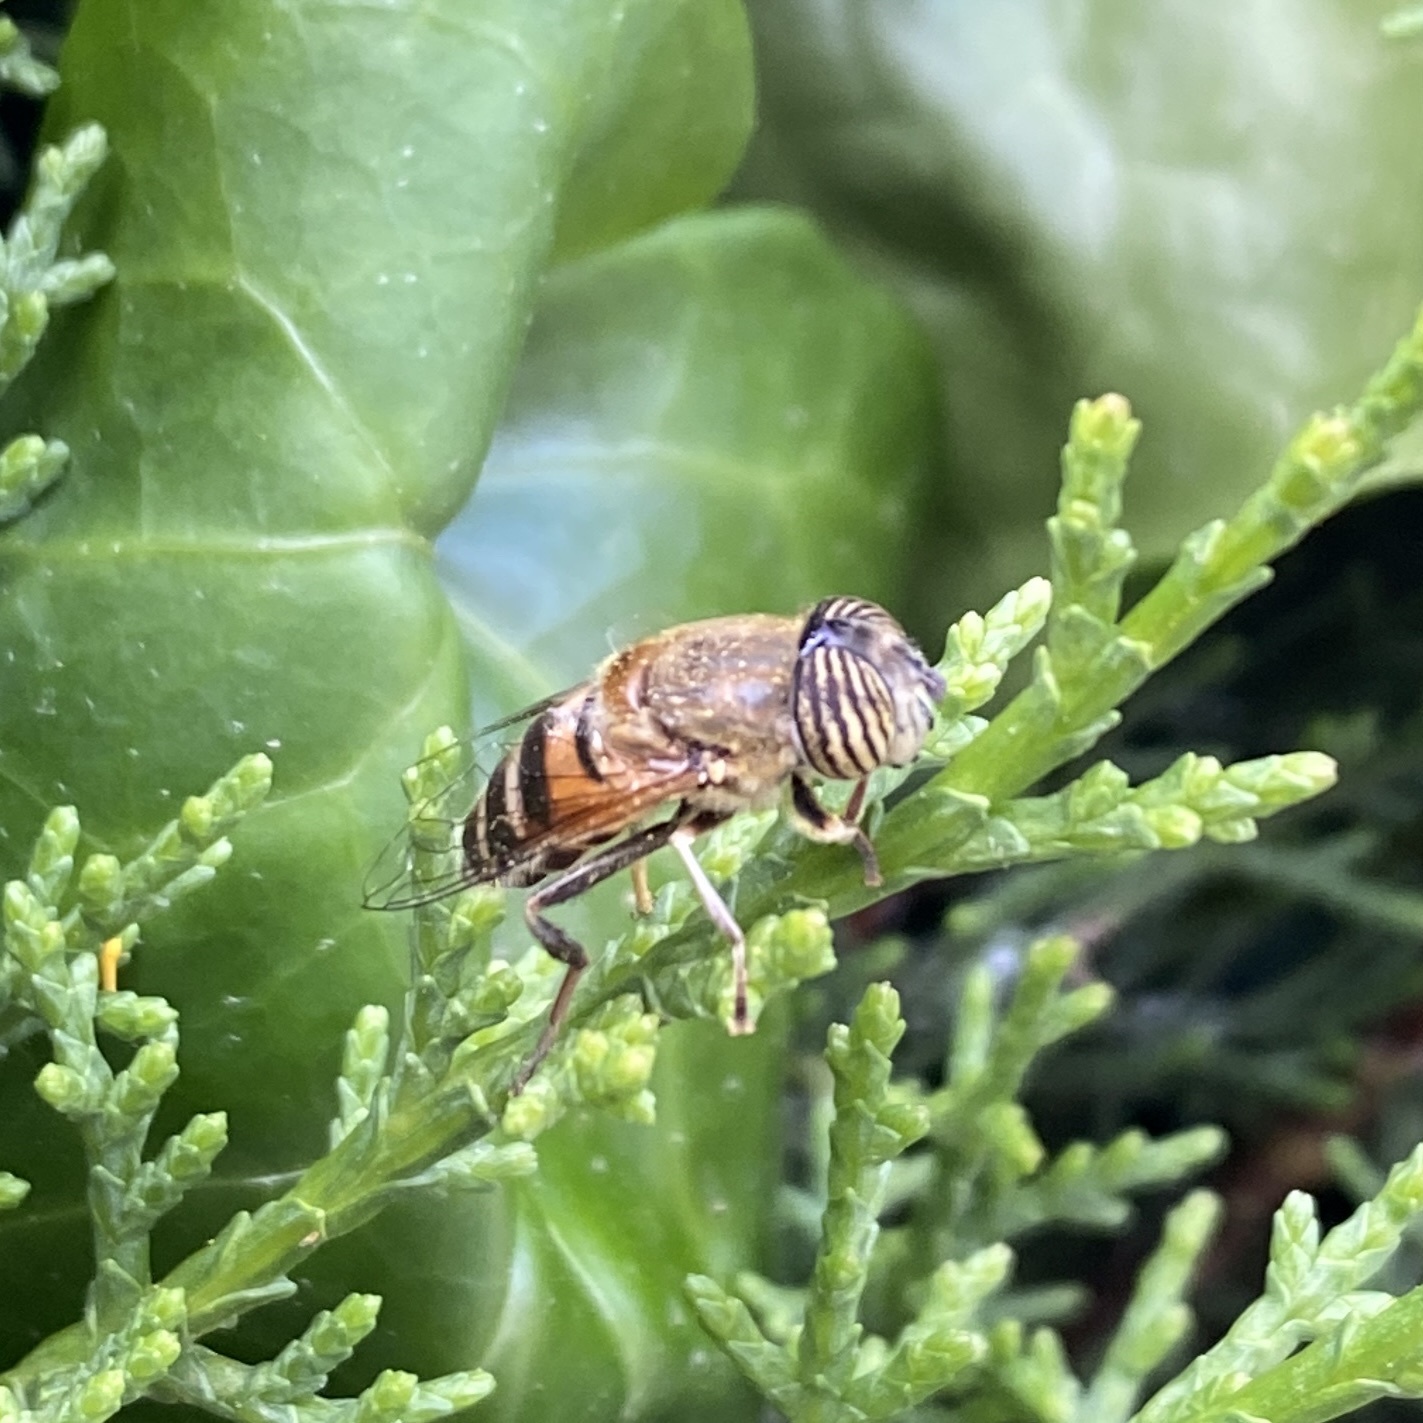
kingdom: Animalia
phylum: Arthropoda
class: Insecta
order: Diptera
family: Syrphidae
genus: Eristalinus
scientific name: Eristalinus taeniops
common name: Syrphid fly
